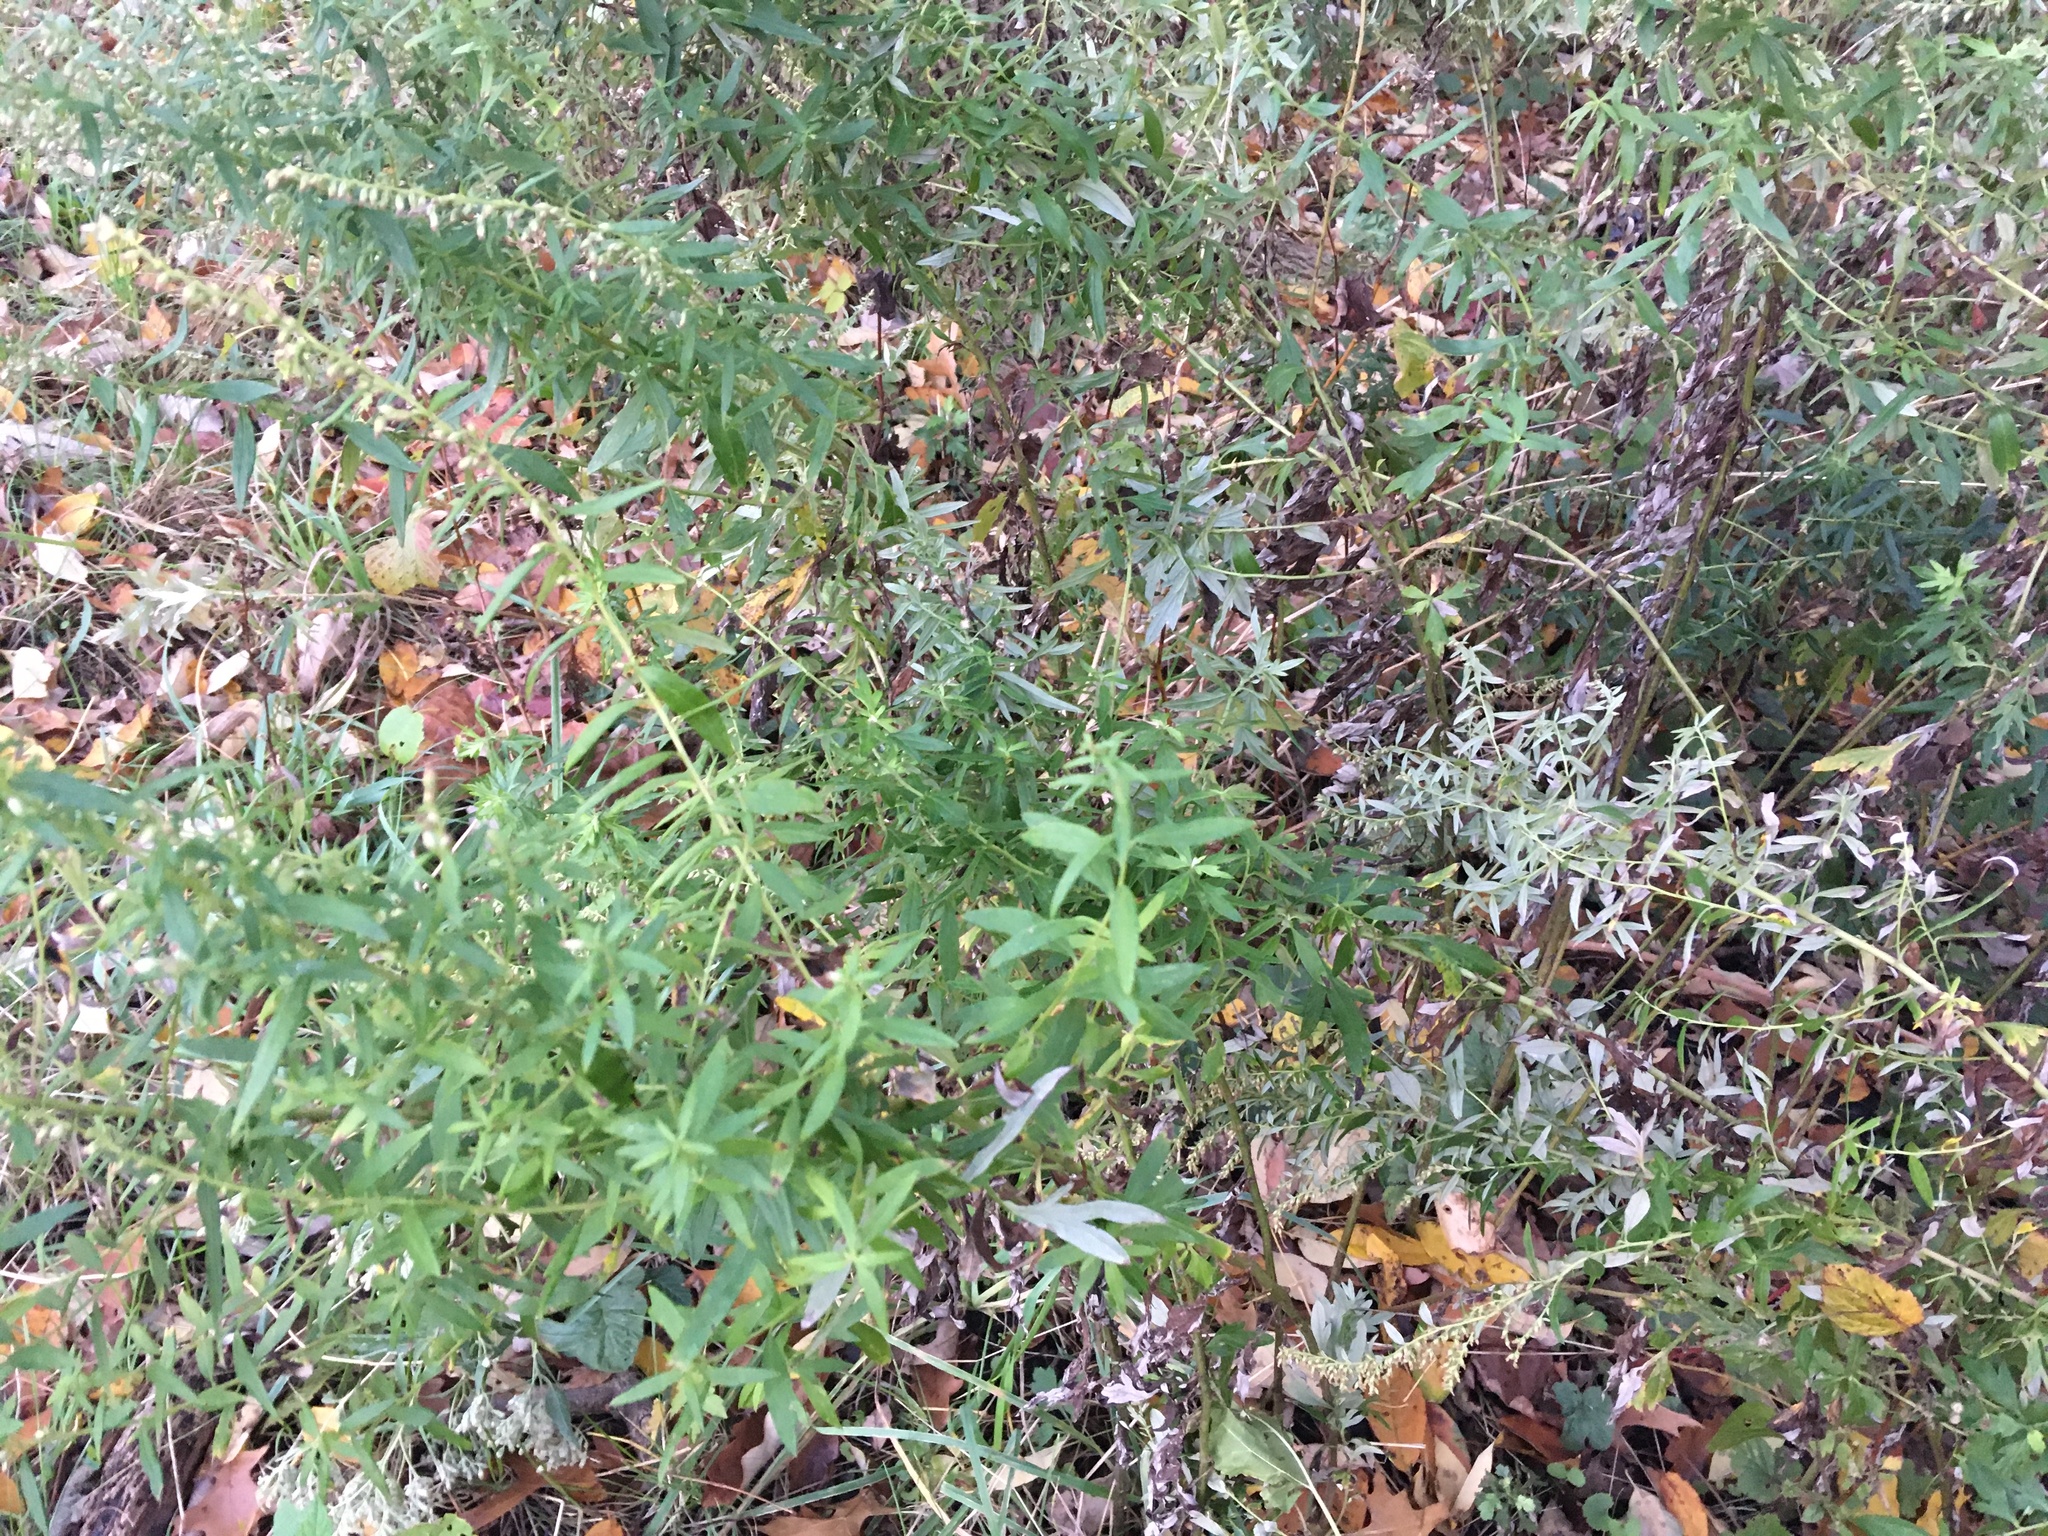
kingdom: Plantae
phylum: Tracheophyta
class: Magnoliopsida
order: Asterales
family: Asteraceae
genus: Artemisia
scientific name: Artemisia vulgaris
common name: Mugwort
